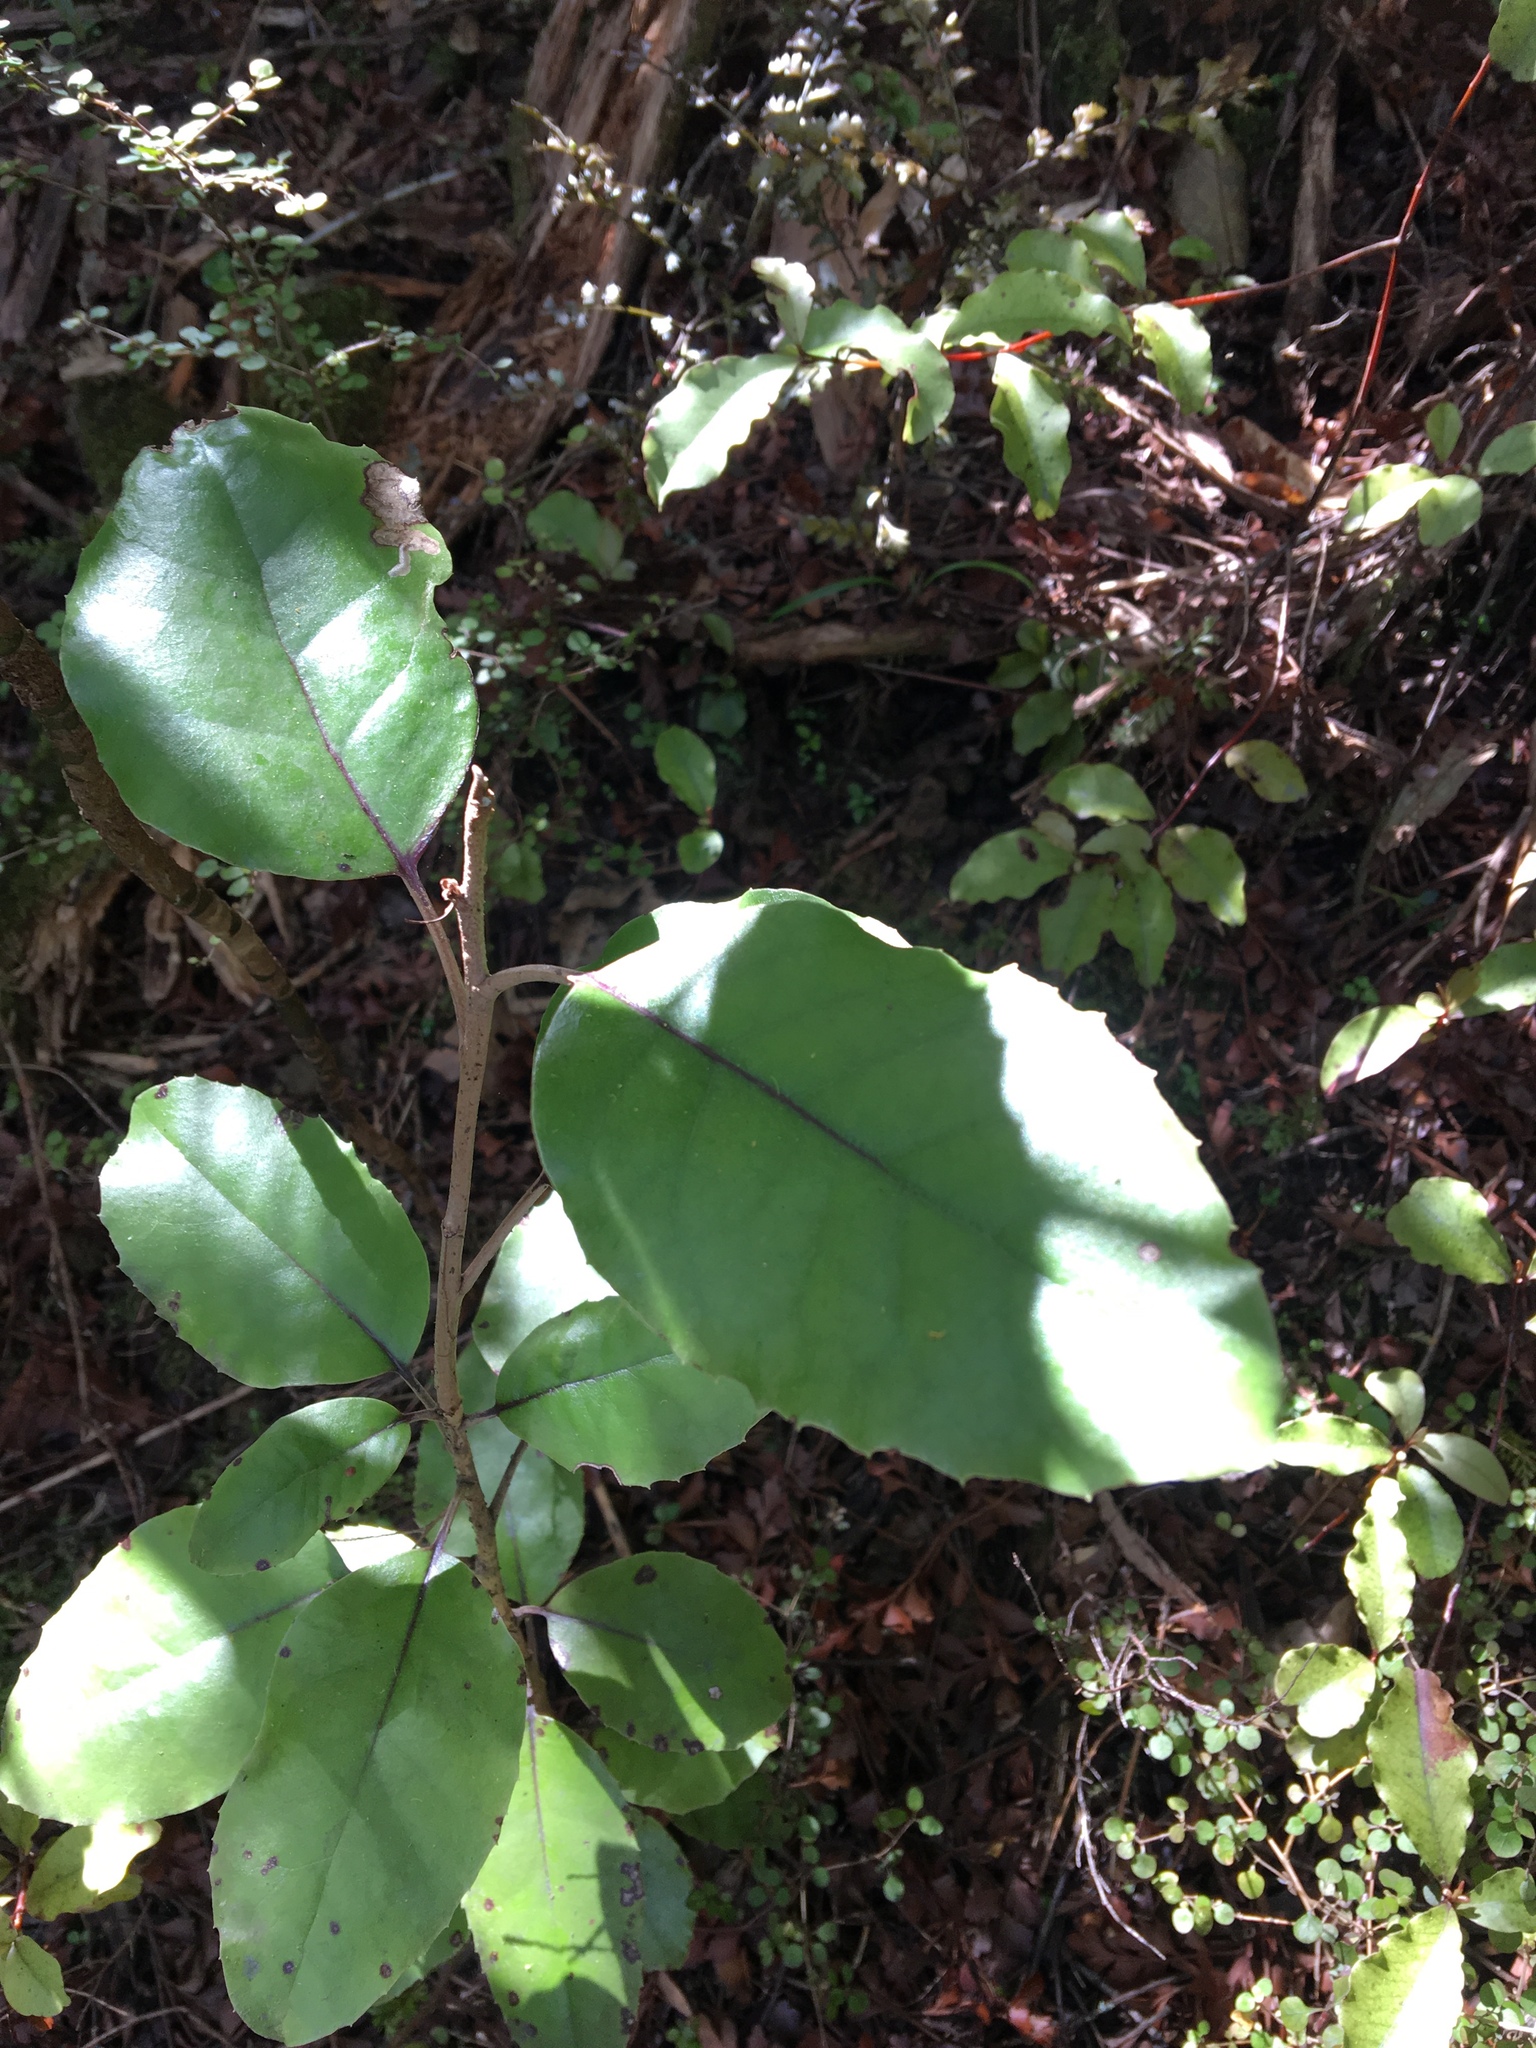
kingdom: Plantae
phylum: Tracheophyta
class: Magnoliopsida
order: Asterales
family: Asteraceae
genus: Olearia
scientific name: Olearia furfuracea
